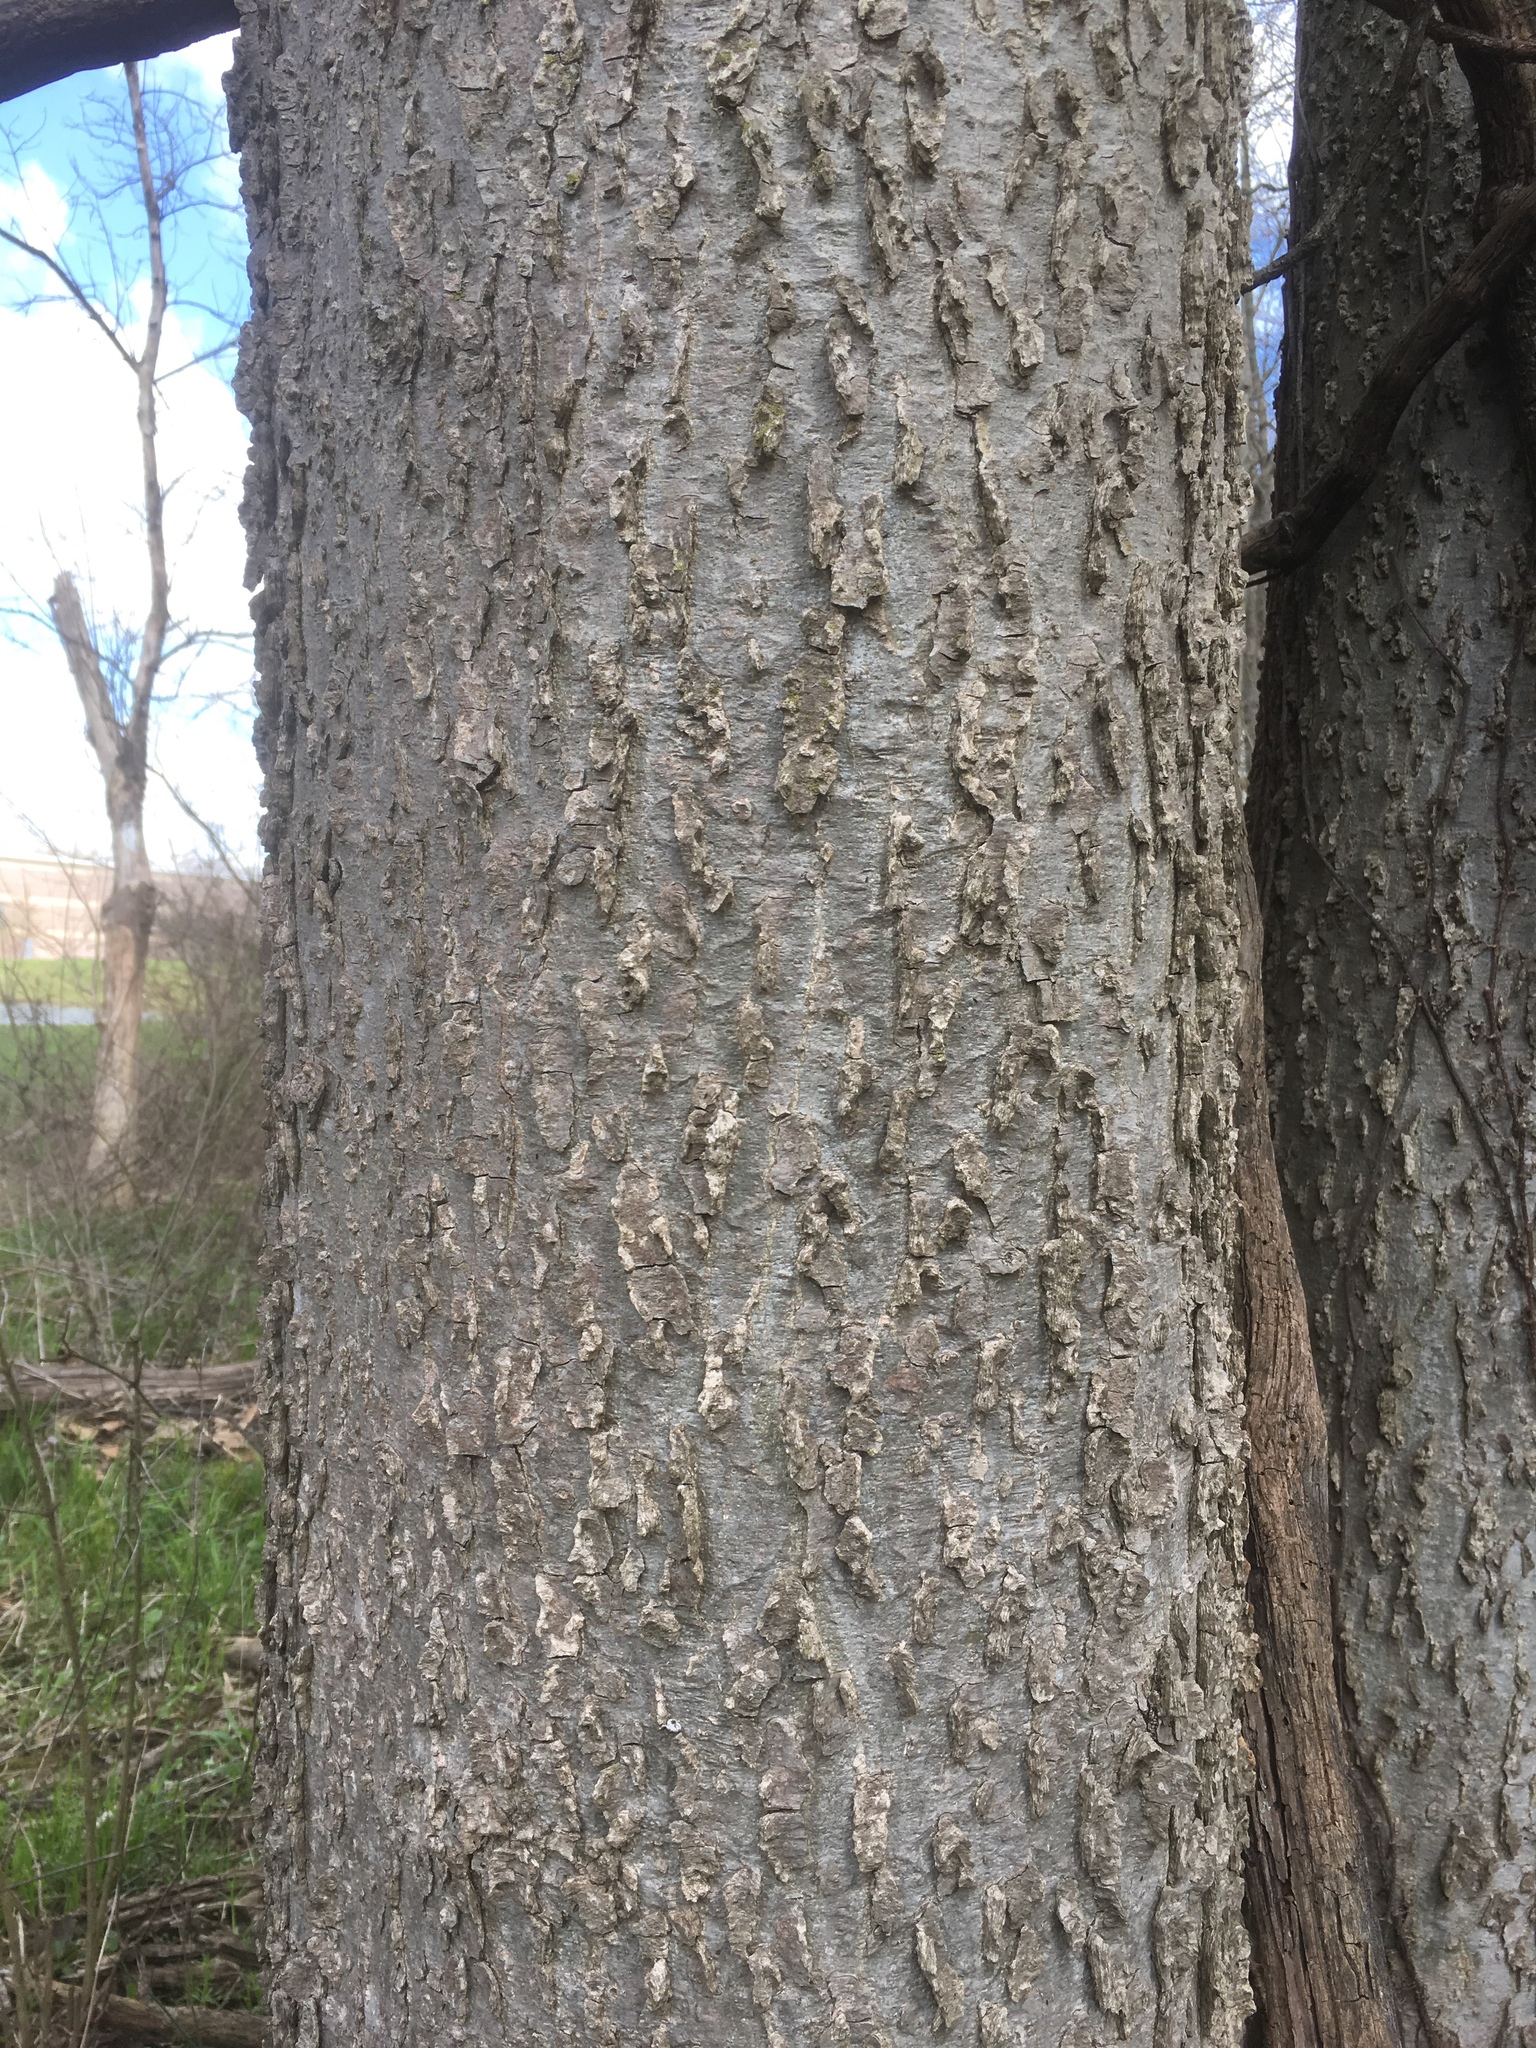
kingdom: Plantae
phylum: Tracheophyta
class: Magnoliopsida
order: Rosales
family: Cannabaceae
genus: Celtis
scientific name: Celtis occidentalis
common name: Common hackberry
